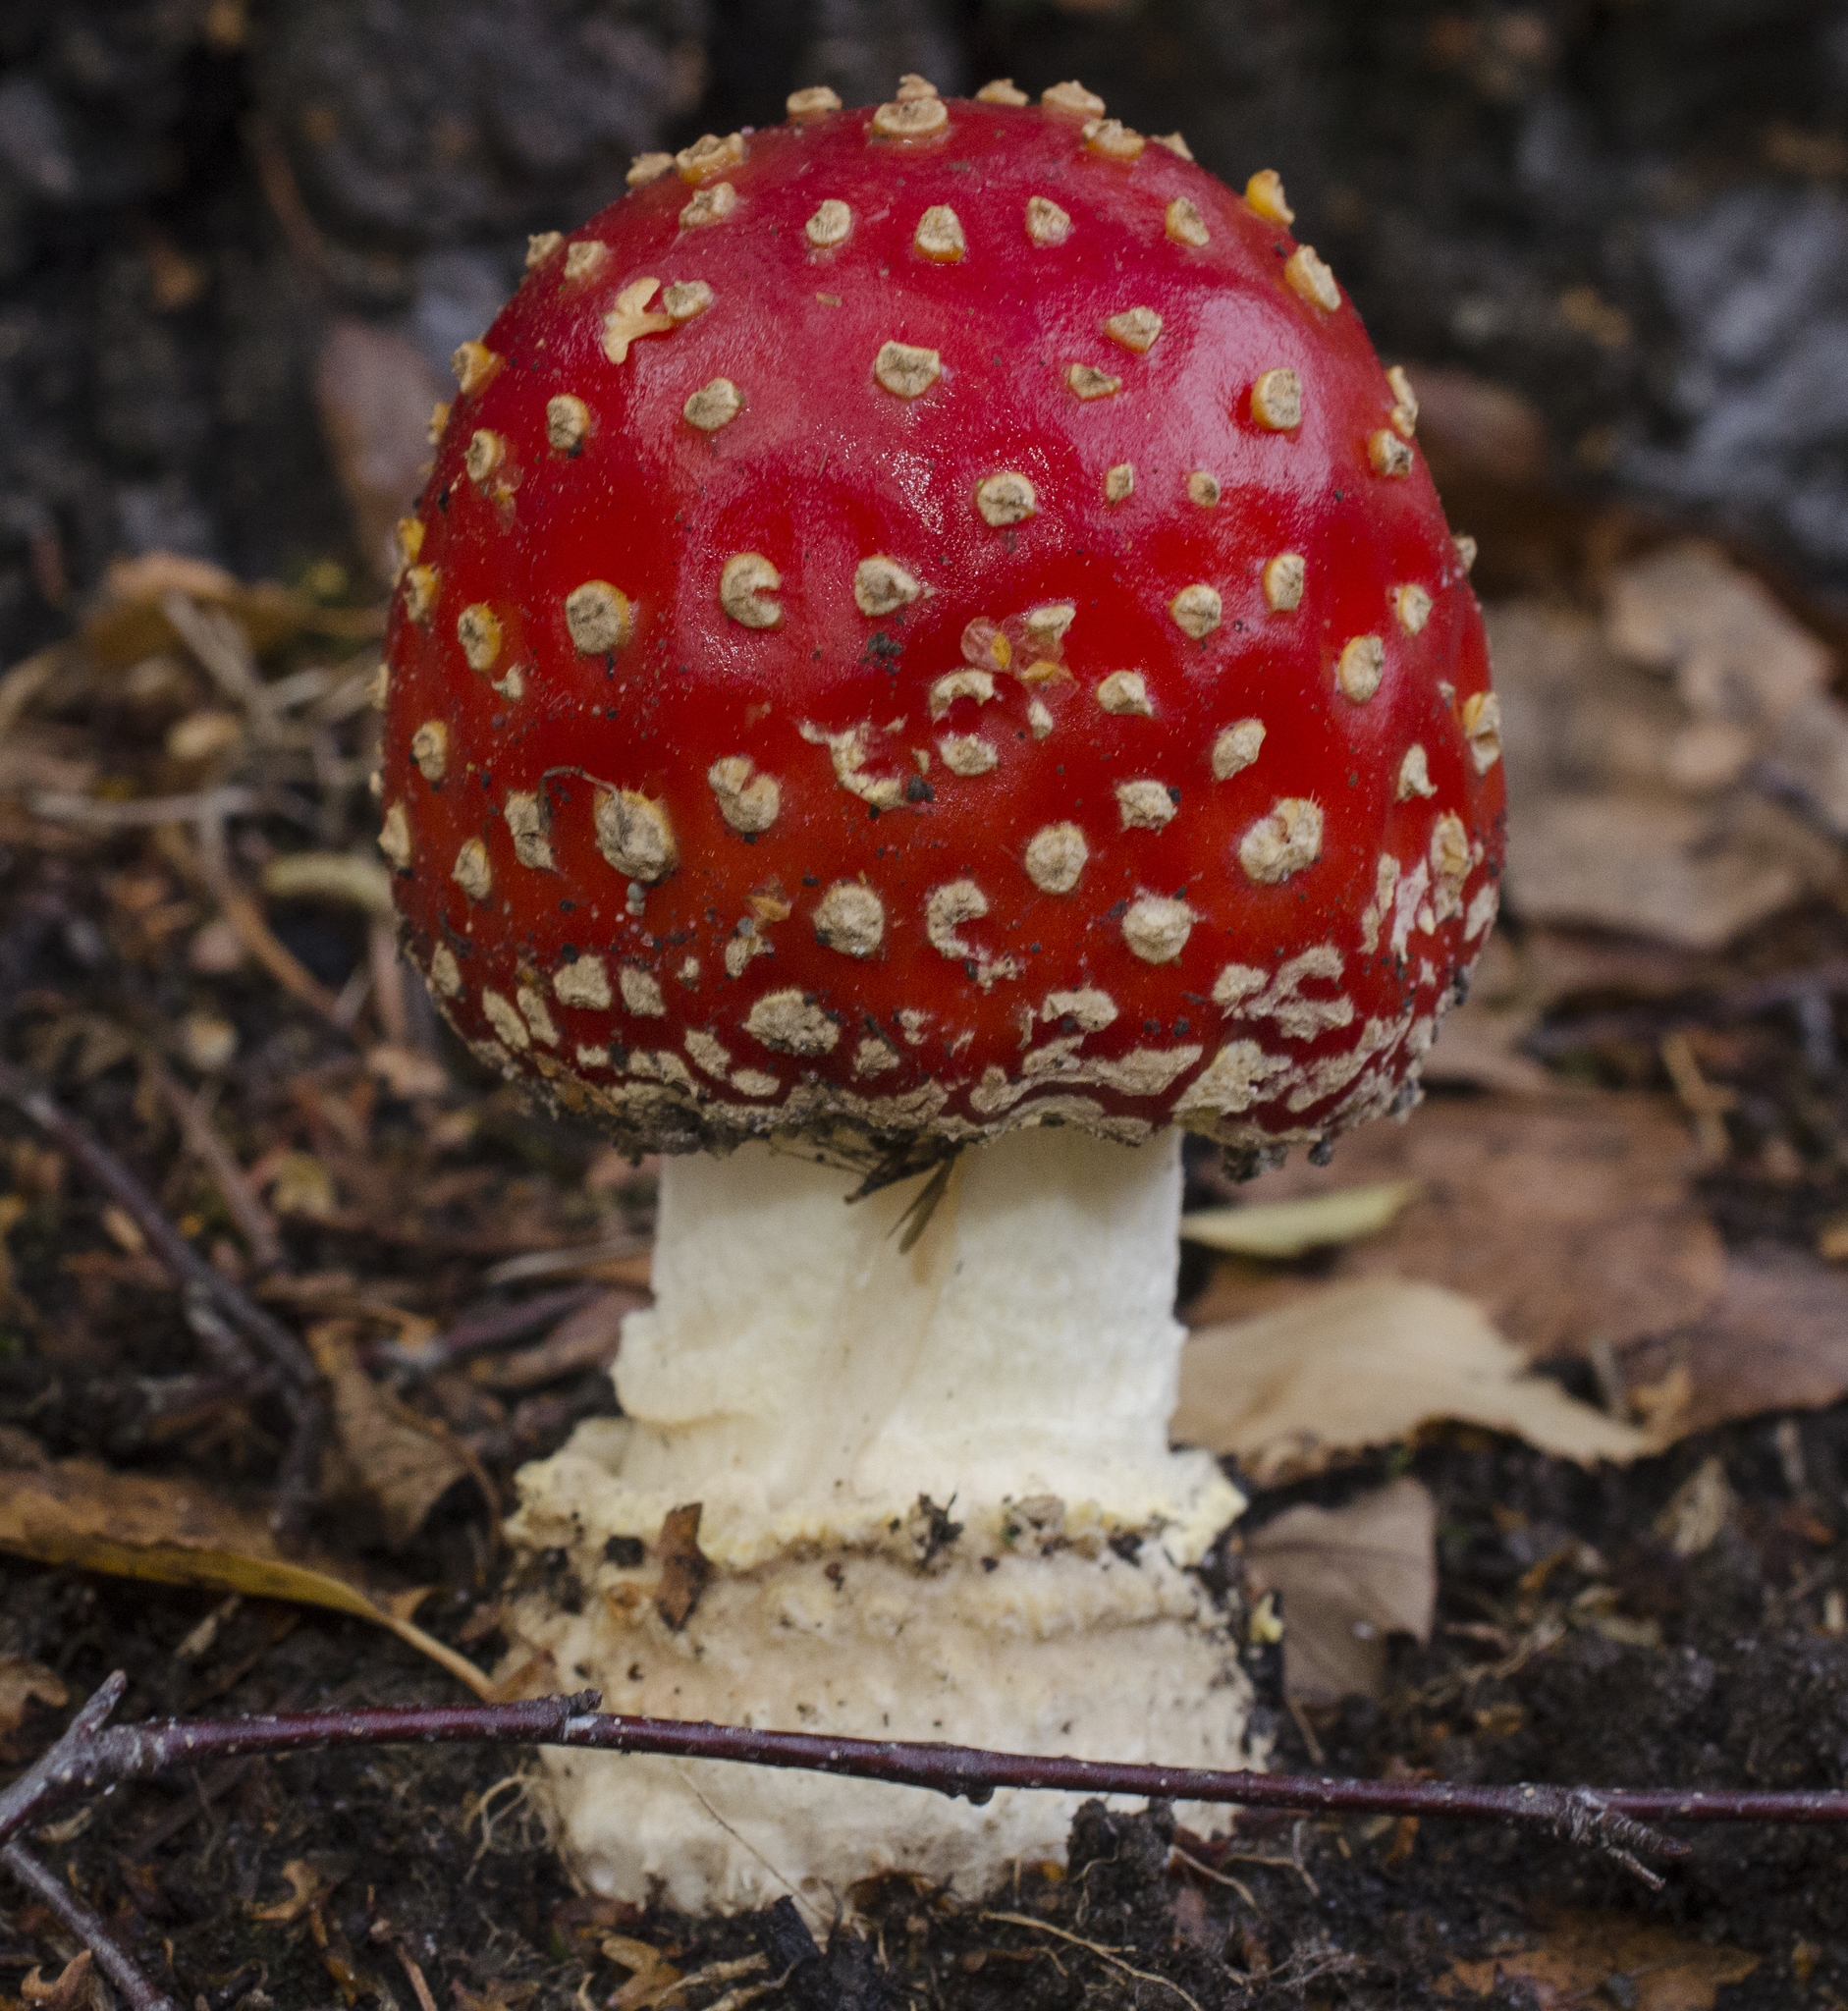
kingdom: Fungi
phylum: Basidiomycota
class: Agaricomycetes
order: Agaricales
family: Amanitaceae
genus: Amanita
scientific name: Amanita muscaria
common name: Fly agaric
